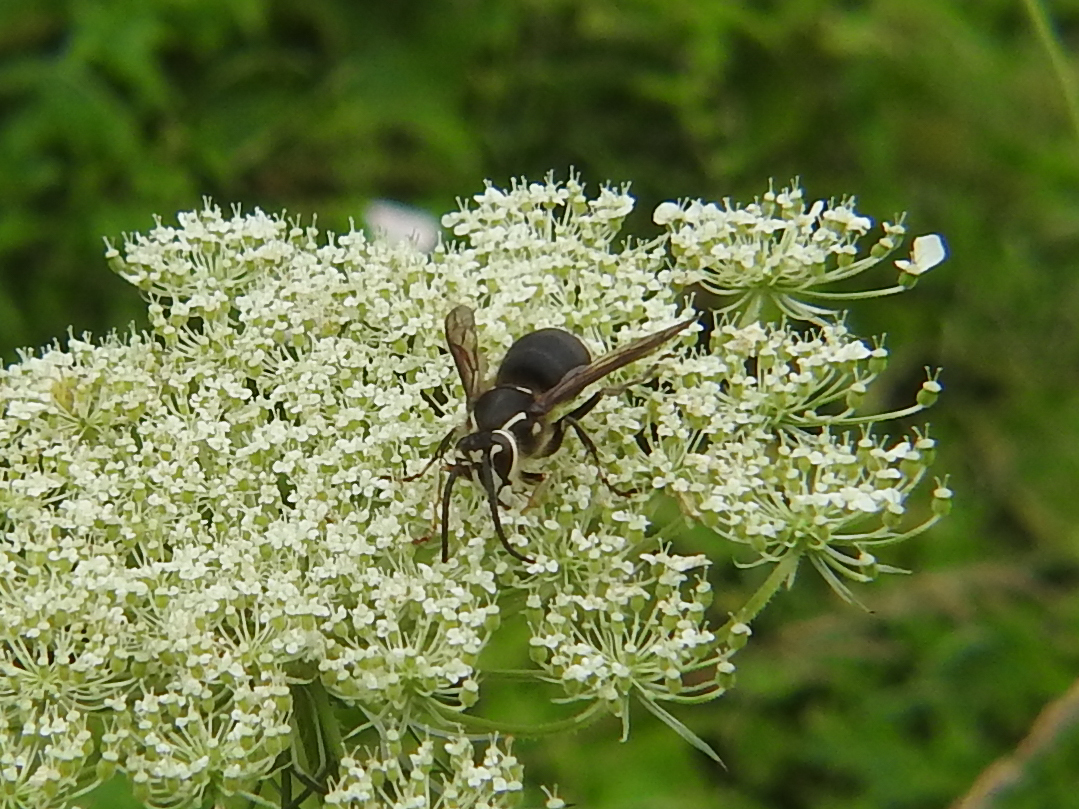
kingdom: Animalia
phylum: Arthropoda
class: Insecta
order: Hymenoptera
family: Vespidae
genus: Dolichovespula
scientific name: Dolichovespula maculata
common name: Bald-faced hornet
